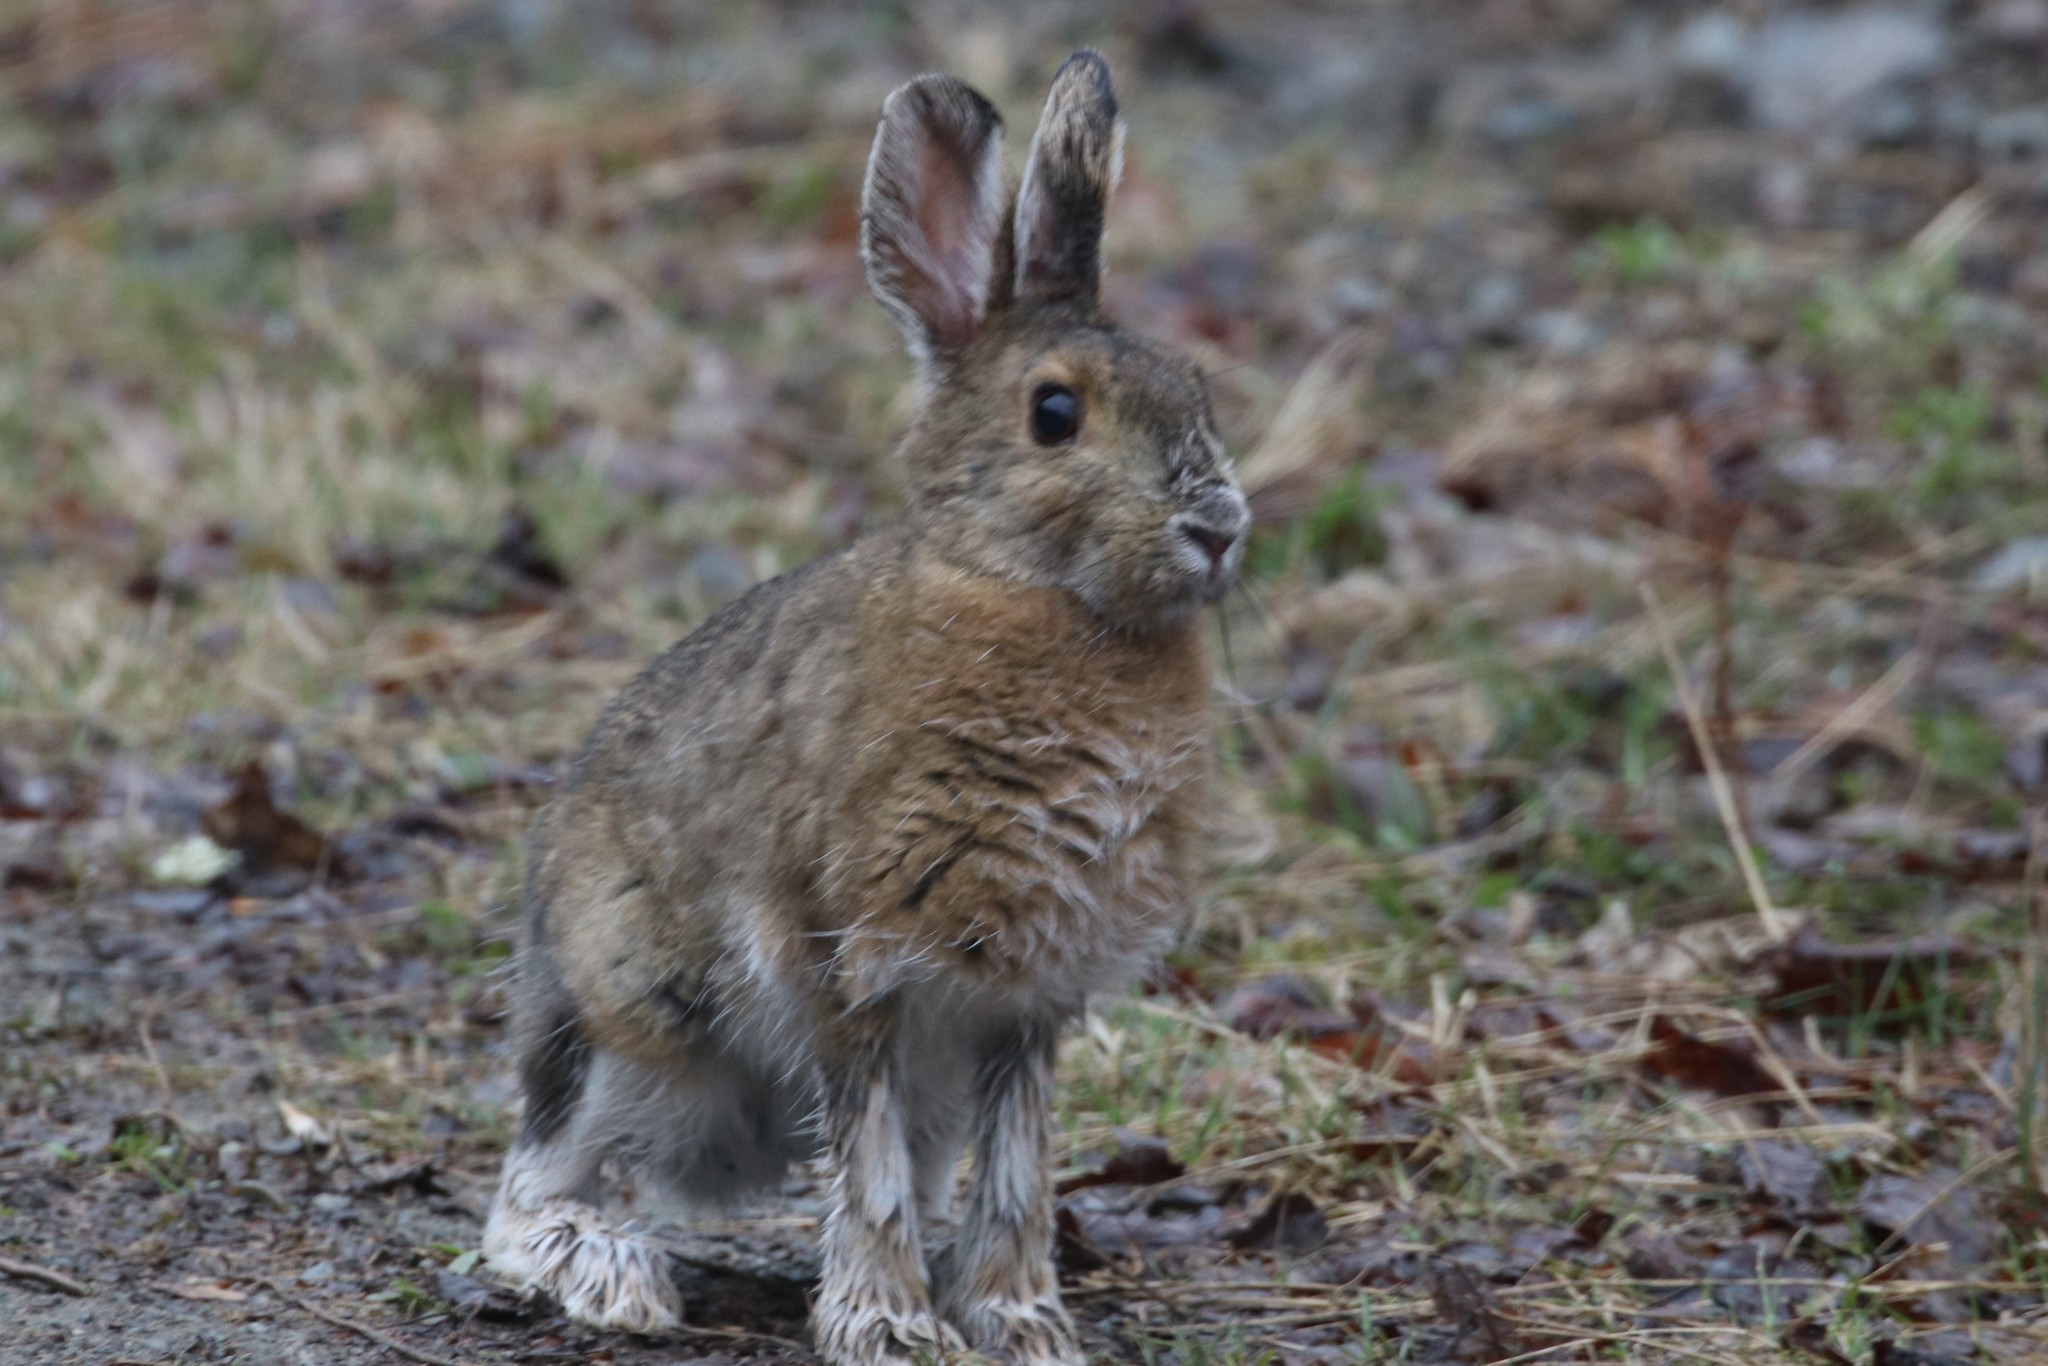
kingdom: Animalia
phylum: Chordata
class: Mammalia
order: Lagomorpha
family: Leporidae
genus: Lepus
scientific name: Lepus americanus
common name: Snowshoe hare
